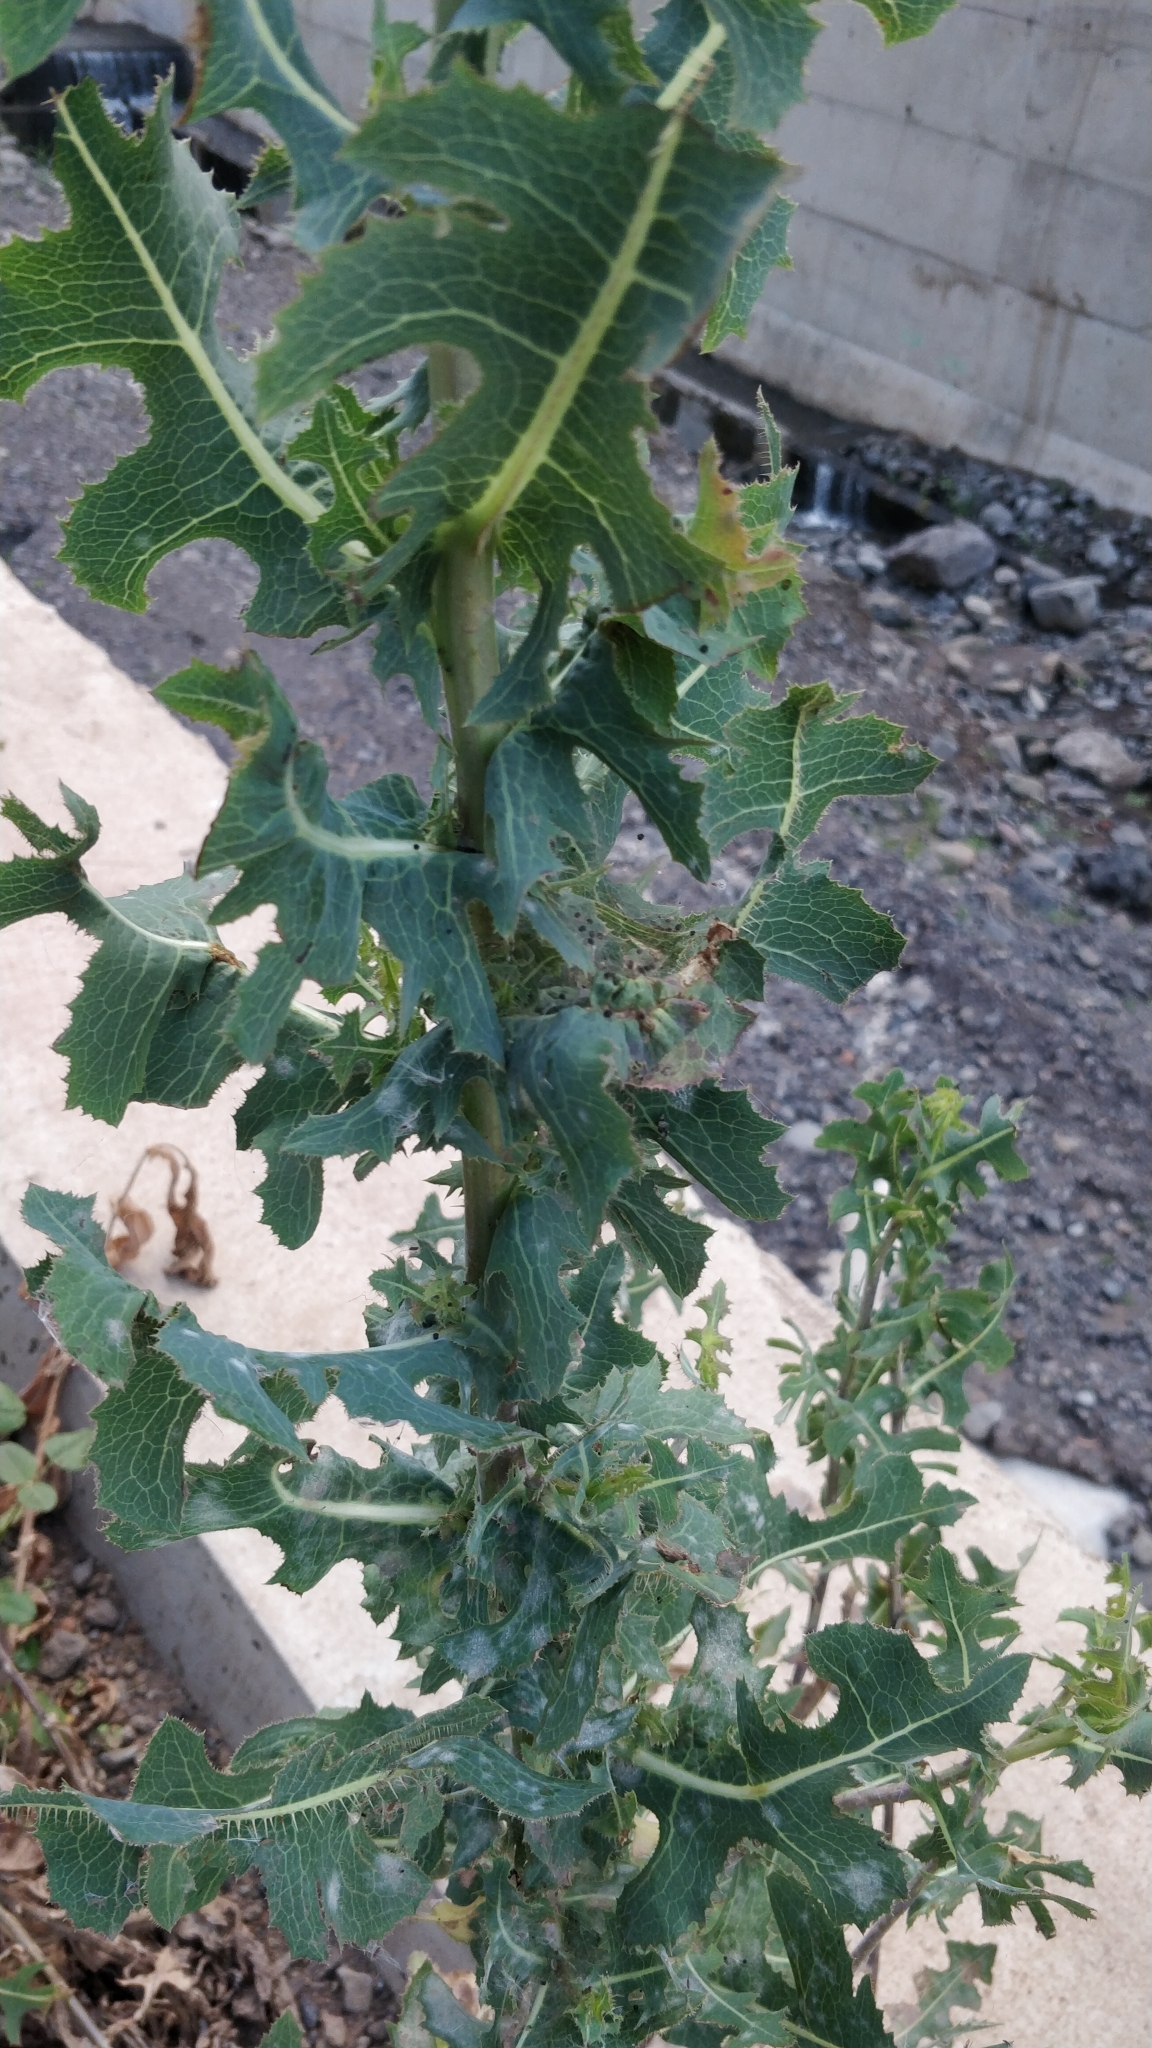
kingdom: Plantae
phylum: Tracheophyta
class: Magnoliopsida
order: Asterales
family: Asteraceae
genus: Lactuca
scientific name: Lactuca serriola
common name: Prickly lettuce
